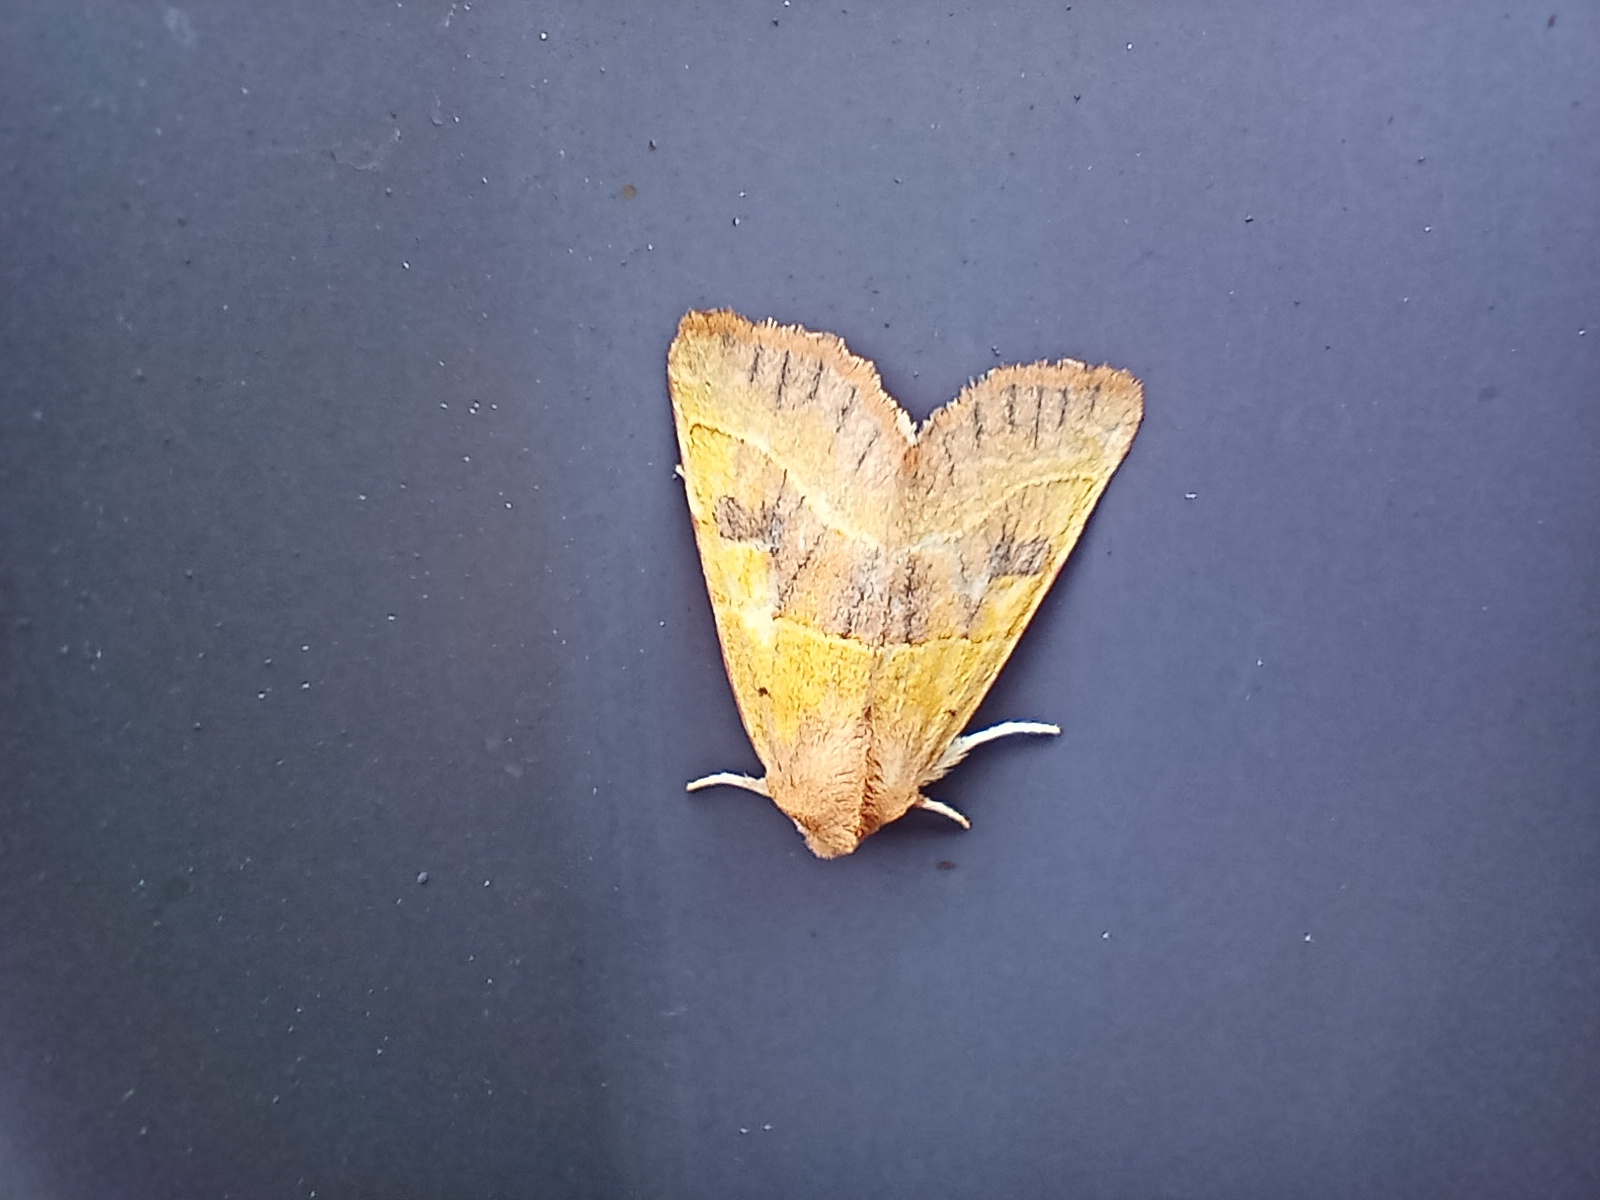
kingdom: Animalia
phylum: Arthropoda
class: Insecta
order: Lepidoptera
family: Noctuidae
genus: Atethmia
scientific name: Atethmia centrago
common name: Centre-barred sallow
